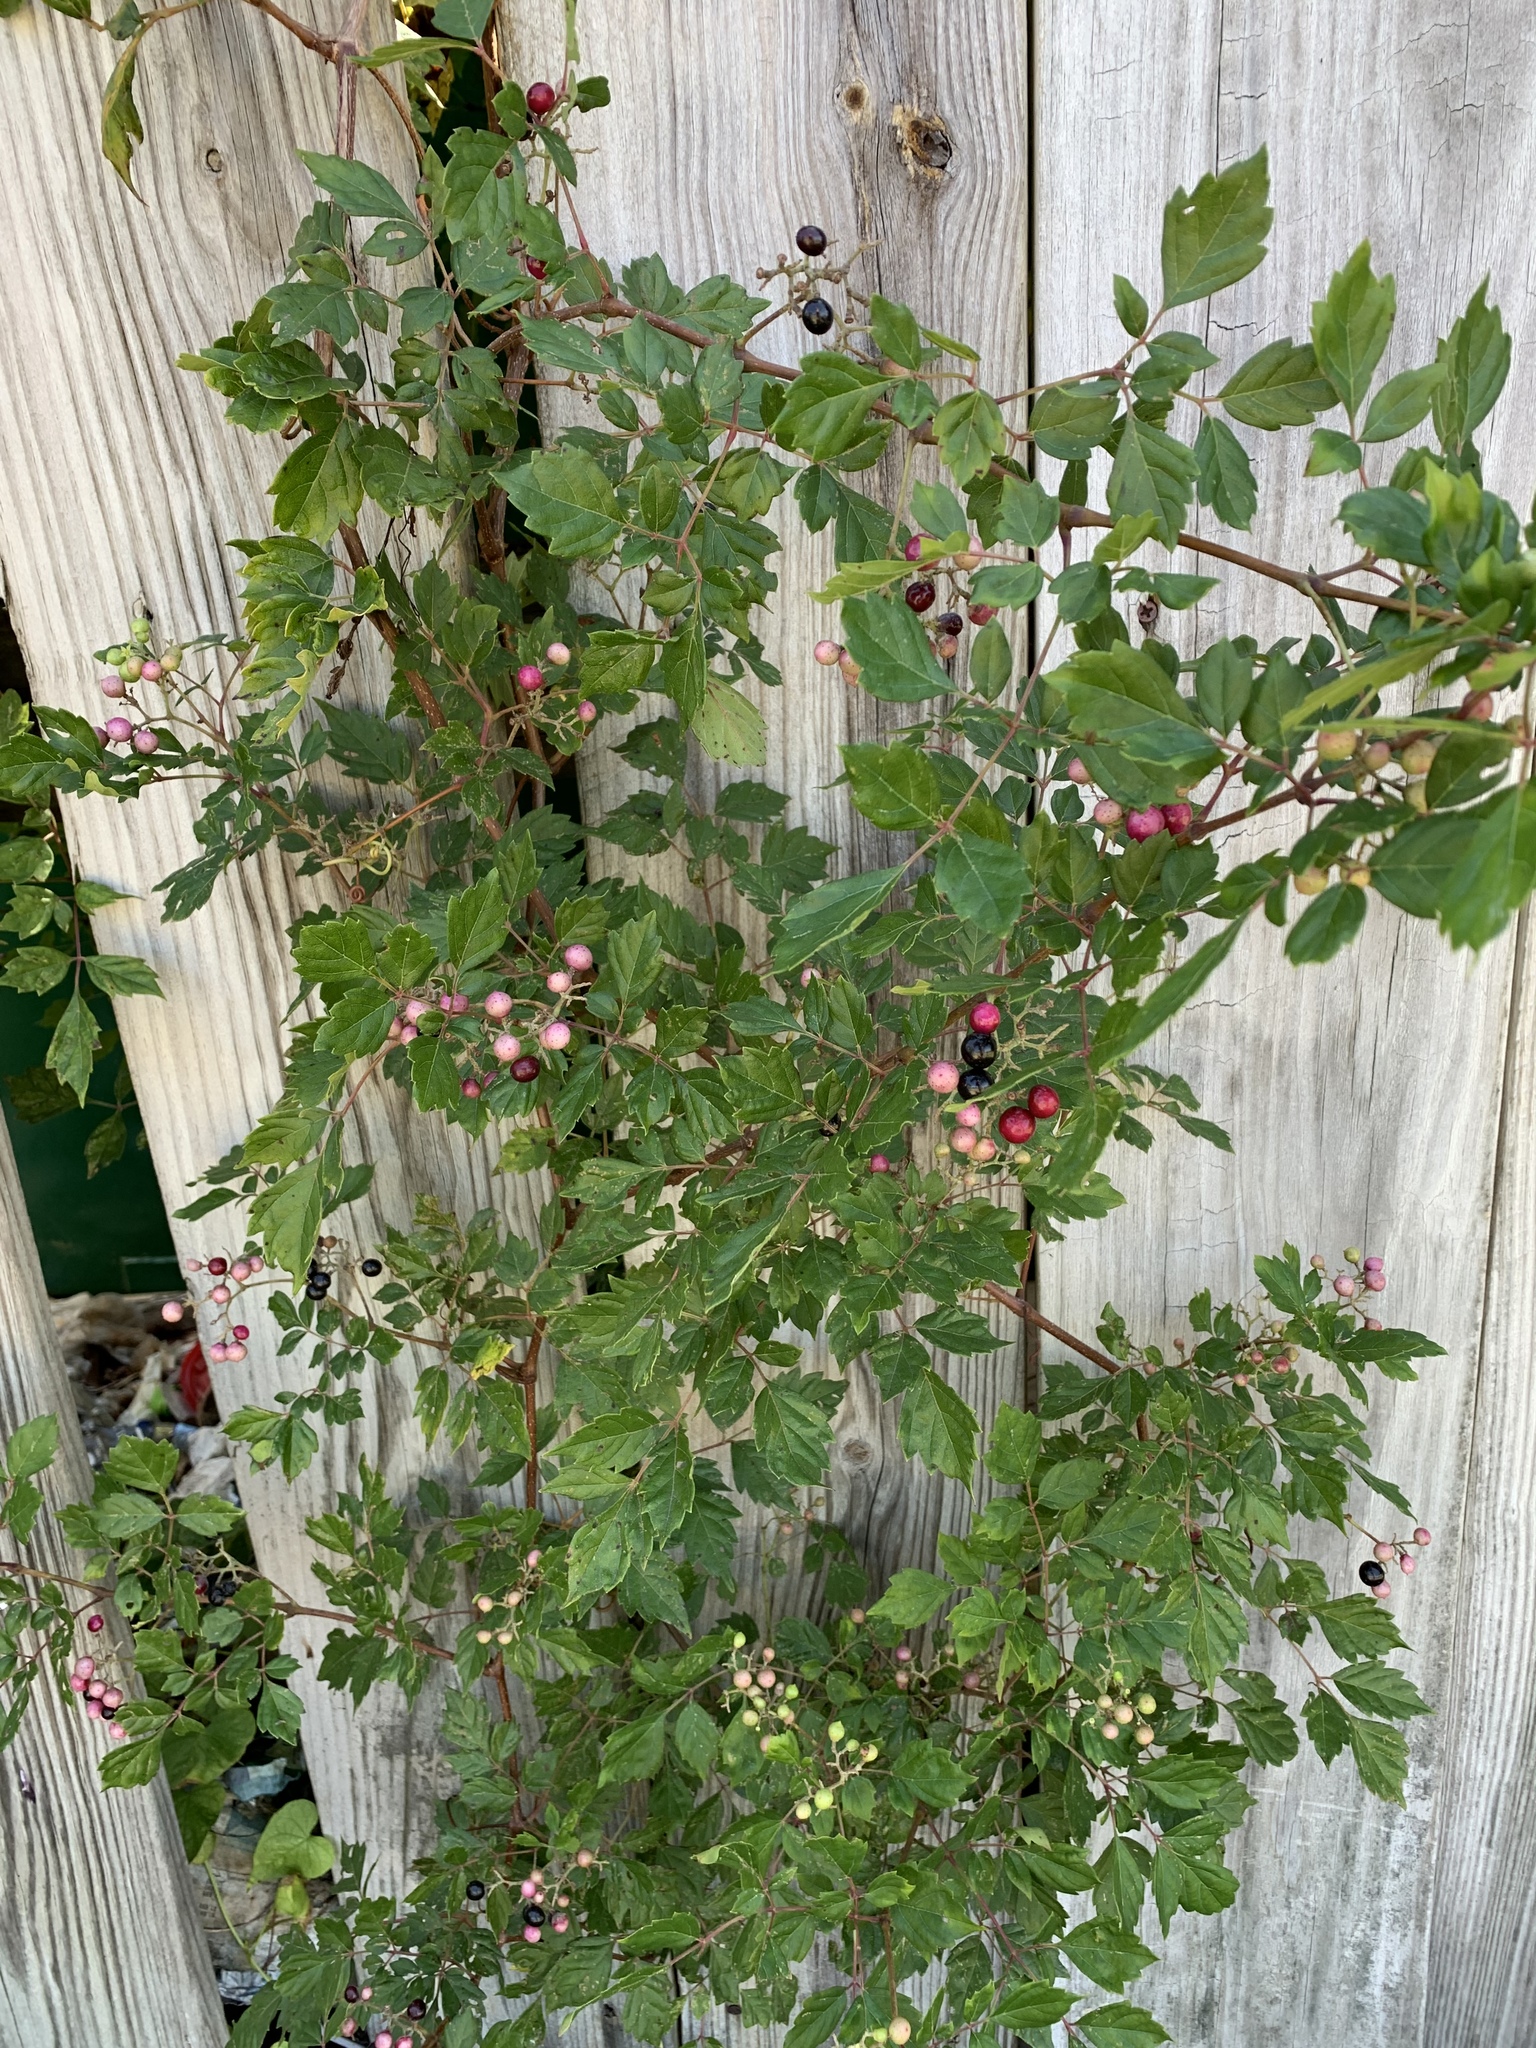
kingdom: Plantae
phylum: Tracheophyta
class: Magnoliopsida
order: Vitales
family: Vitaceae
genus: Nekemias
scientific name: Nekemias arborea
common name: Peppervine
